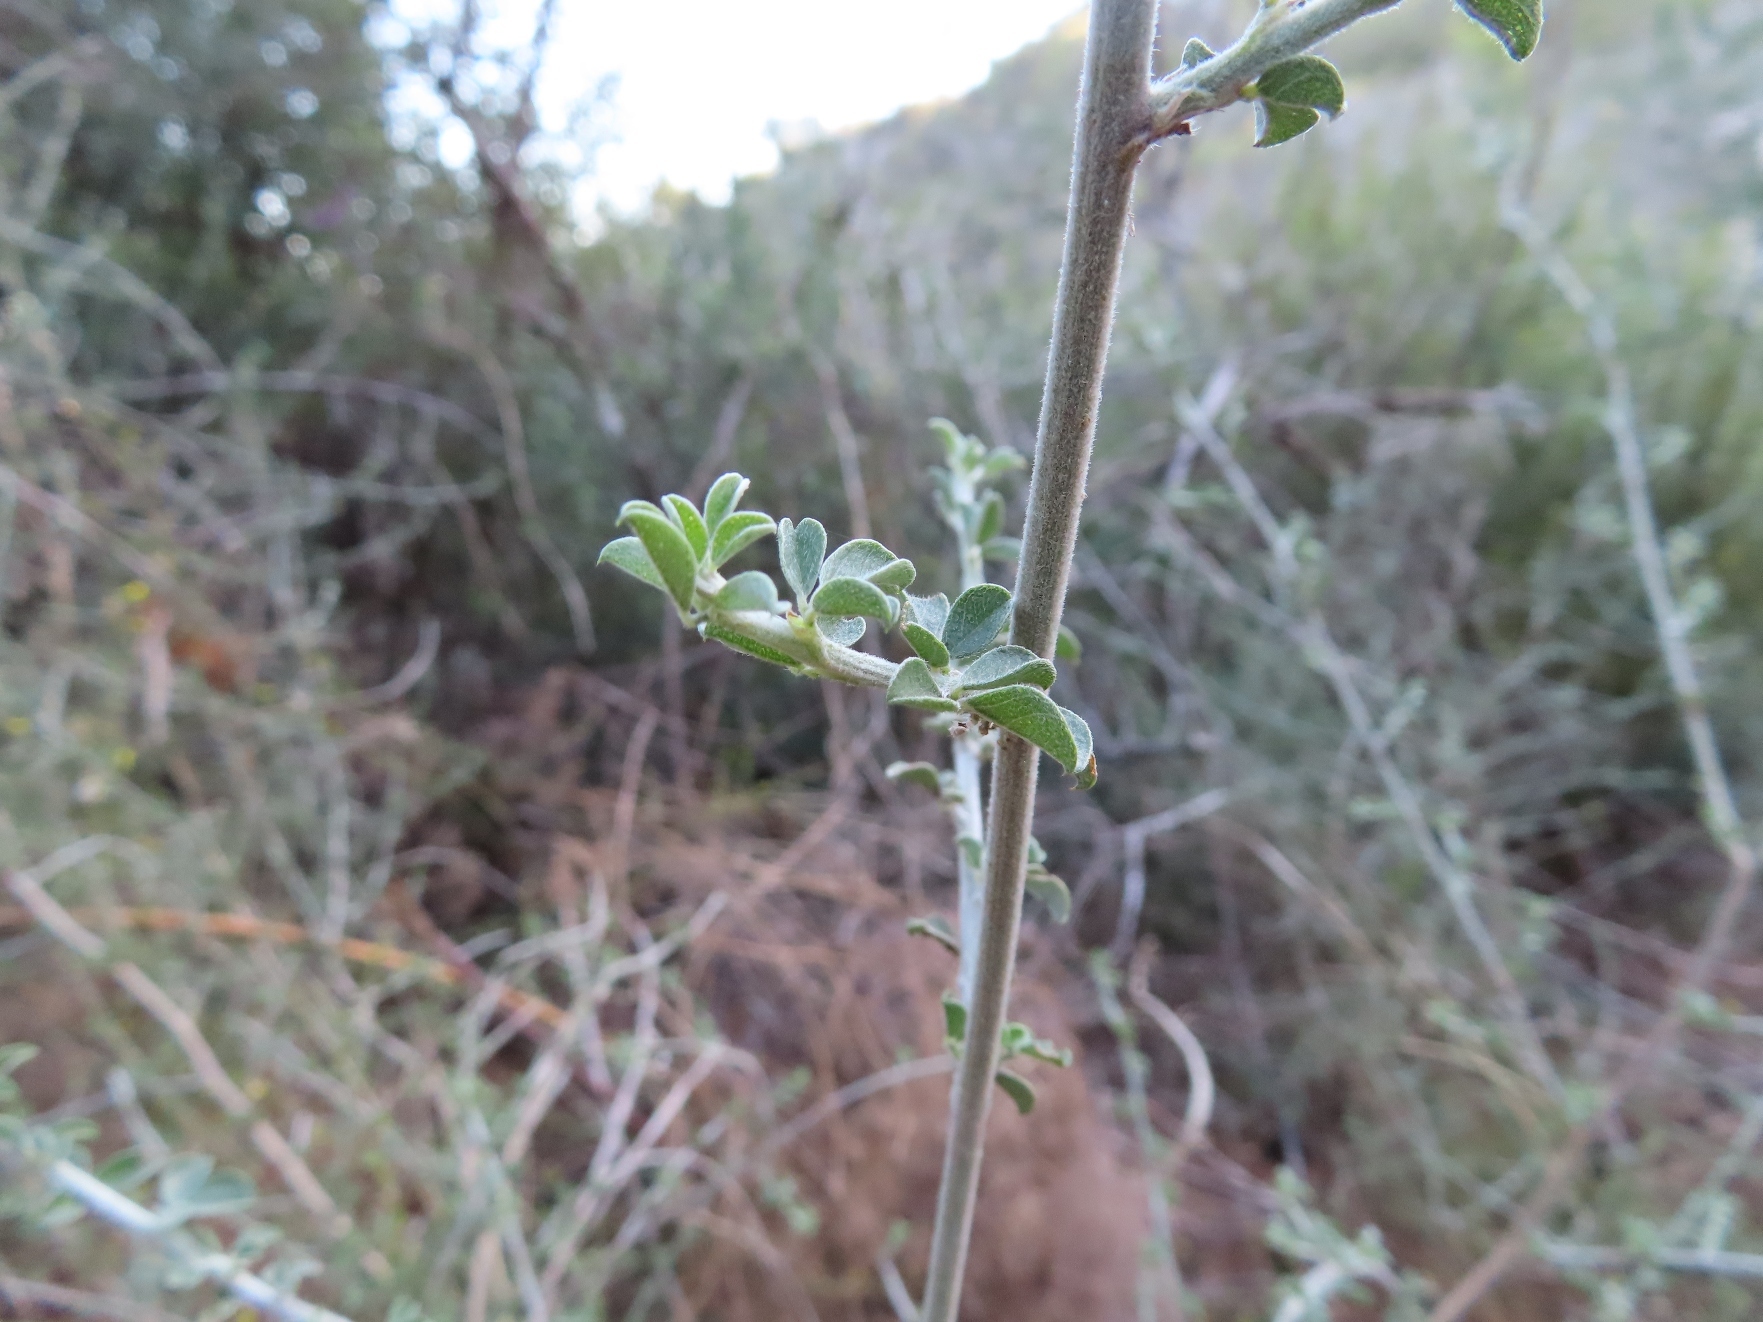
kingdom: Plantae
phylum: Tracheophyta
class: Magnoliopsida
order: Fabales
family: Fabaceae
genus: Psoralea
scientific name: Psoralea hirta
